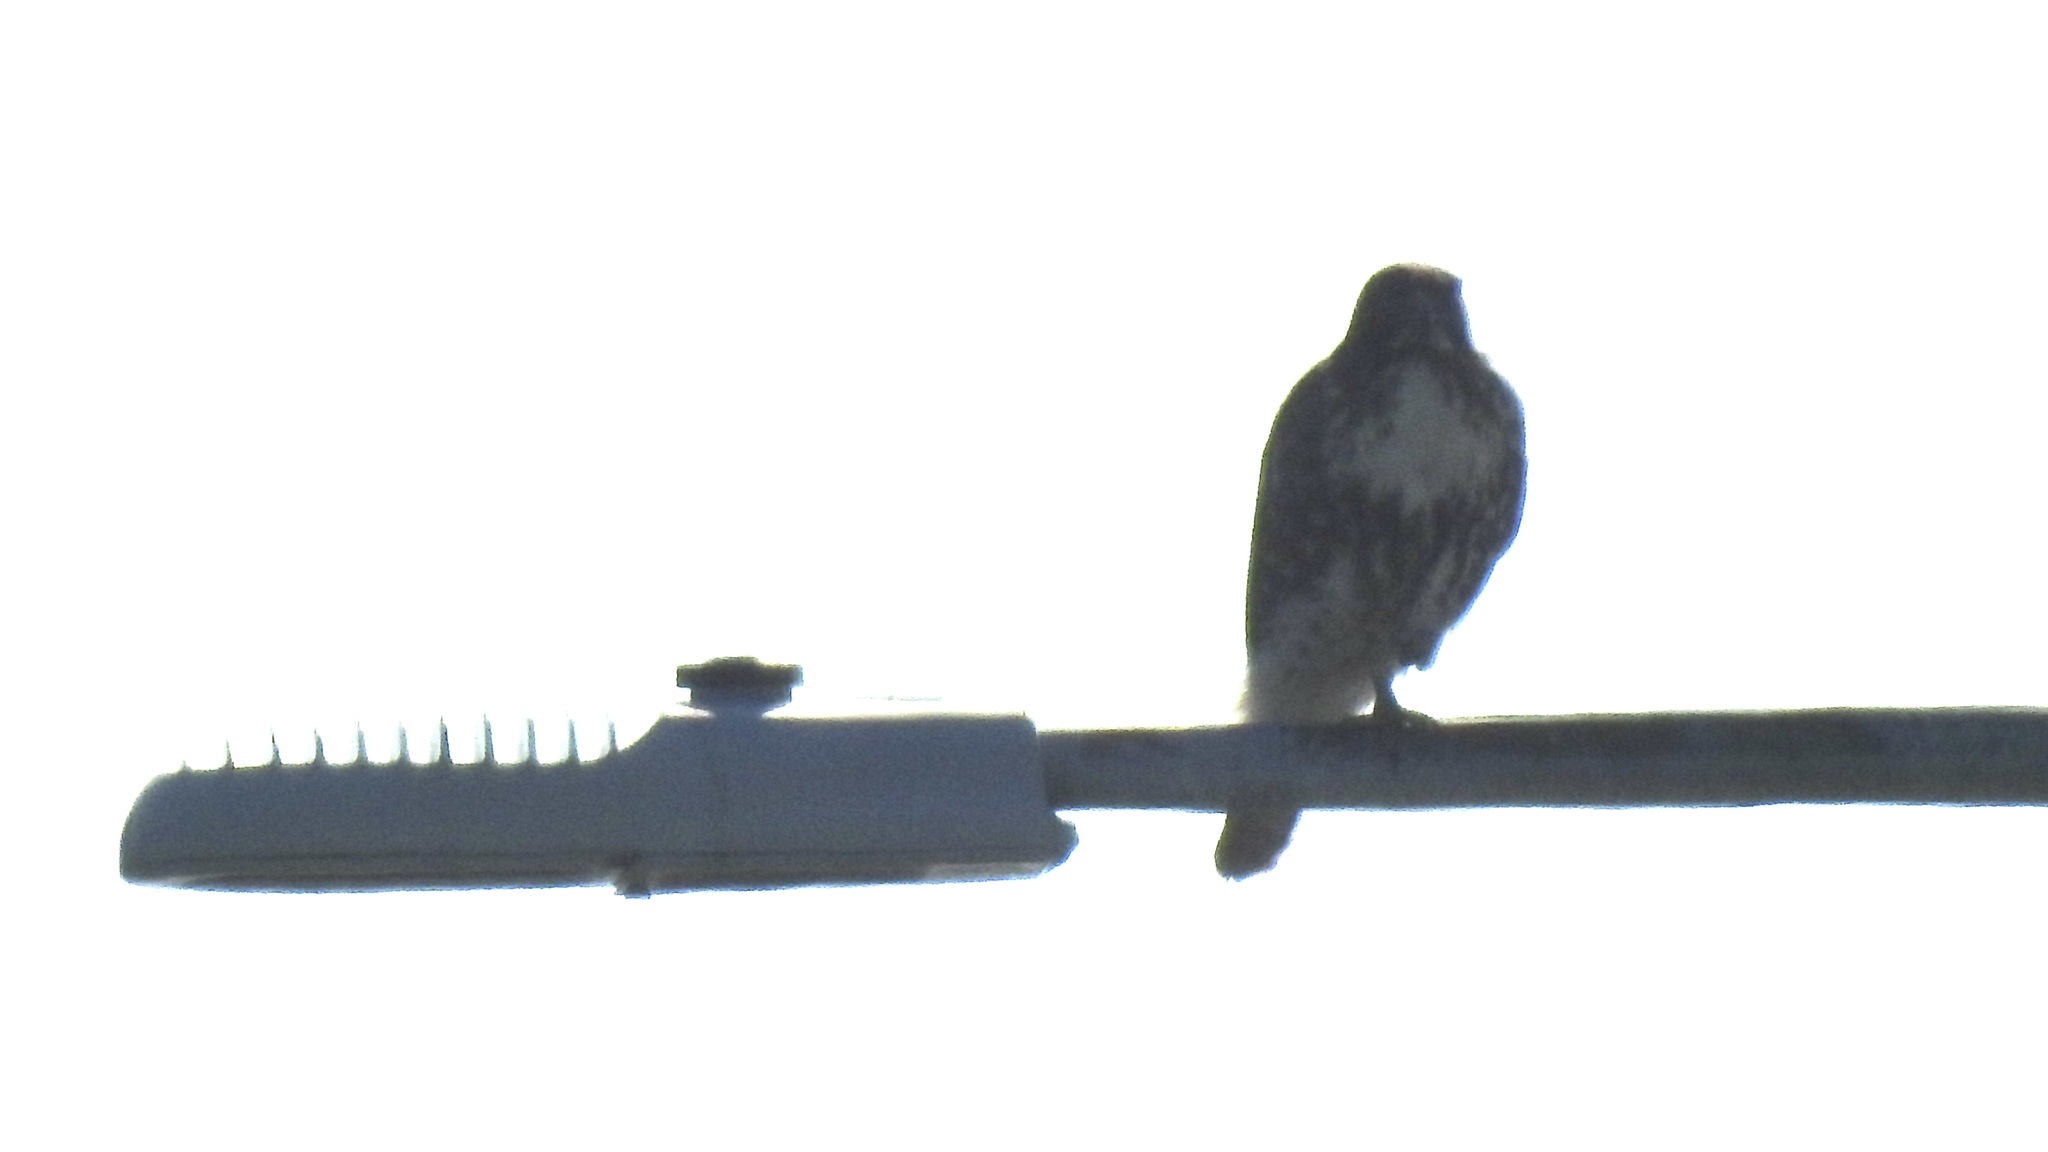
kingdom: Animalia
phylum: Chordata
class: Aves
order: Accipitriformes
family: Accipitridae
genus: Buteo
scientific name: Buteo jamaicensis
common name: Red-tailed hawk
